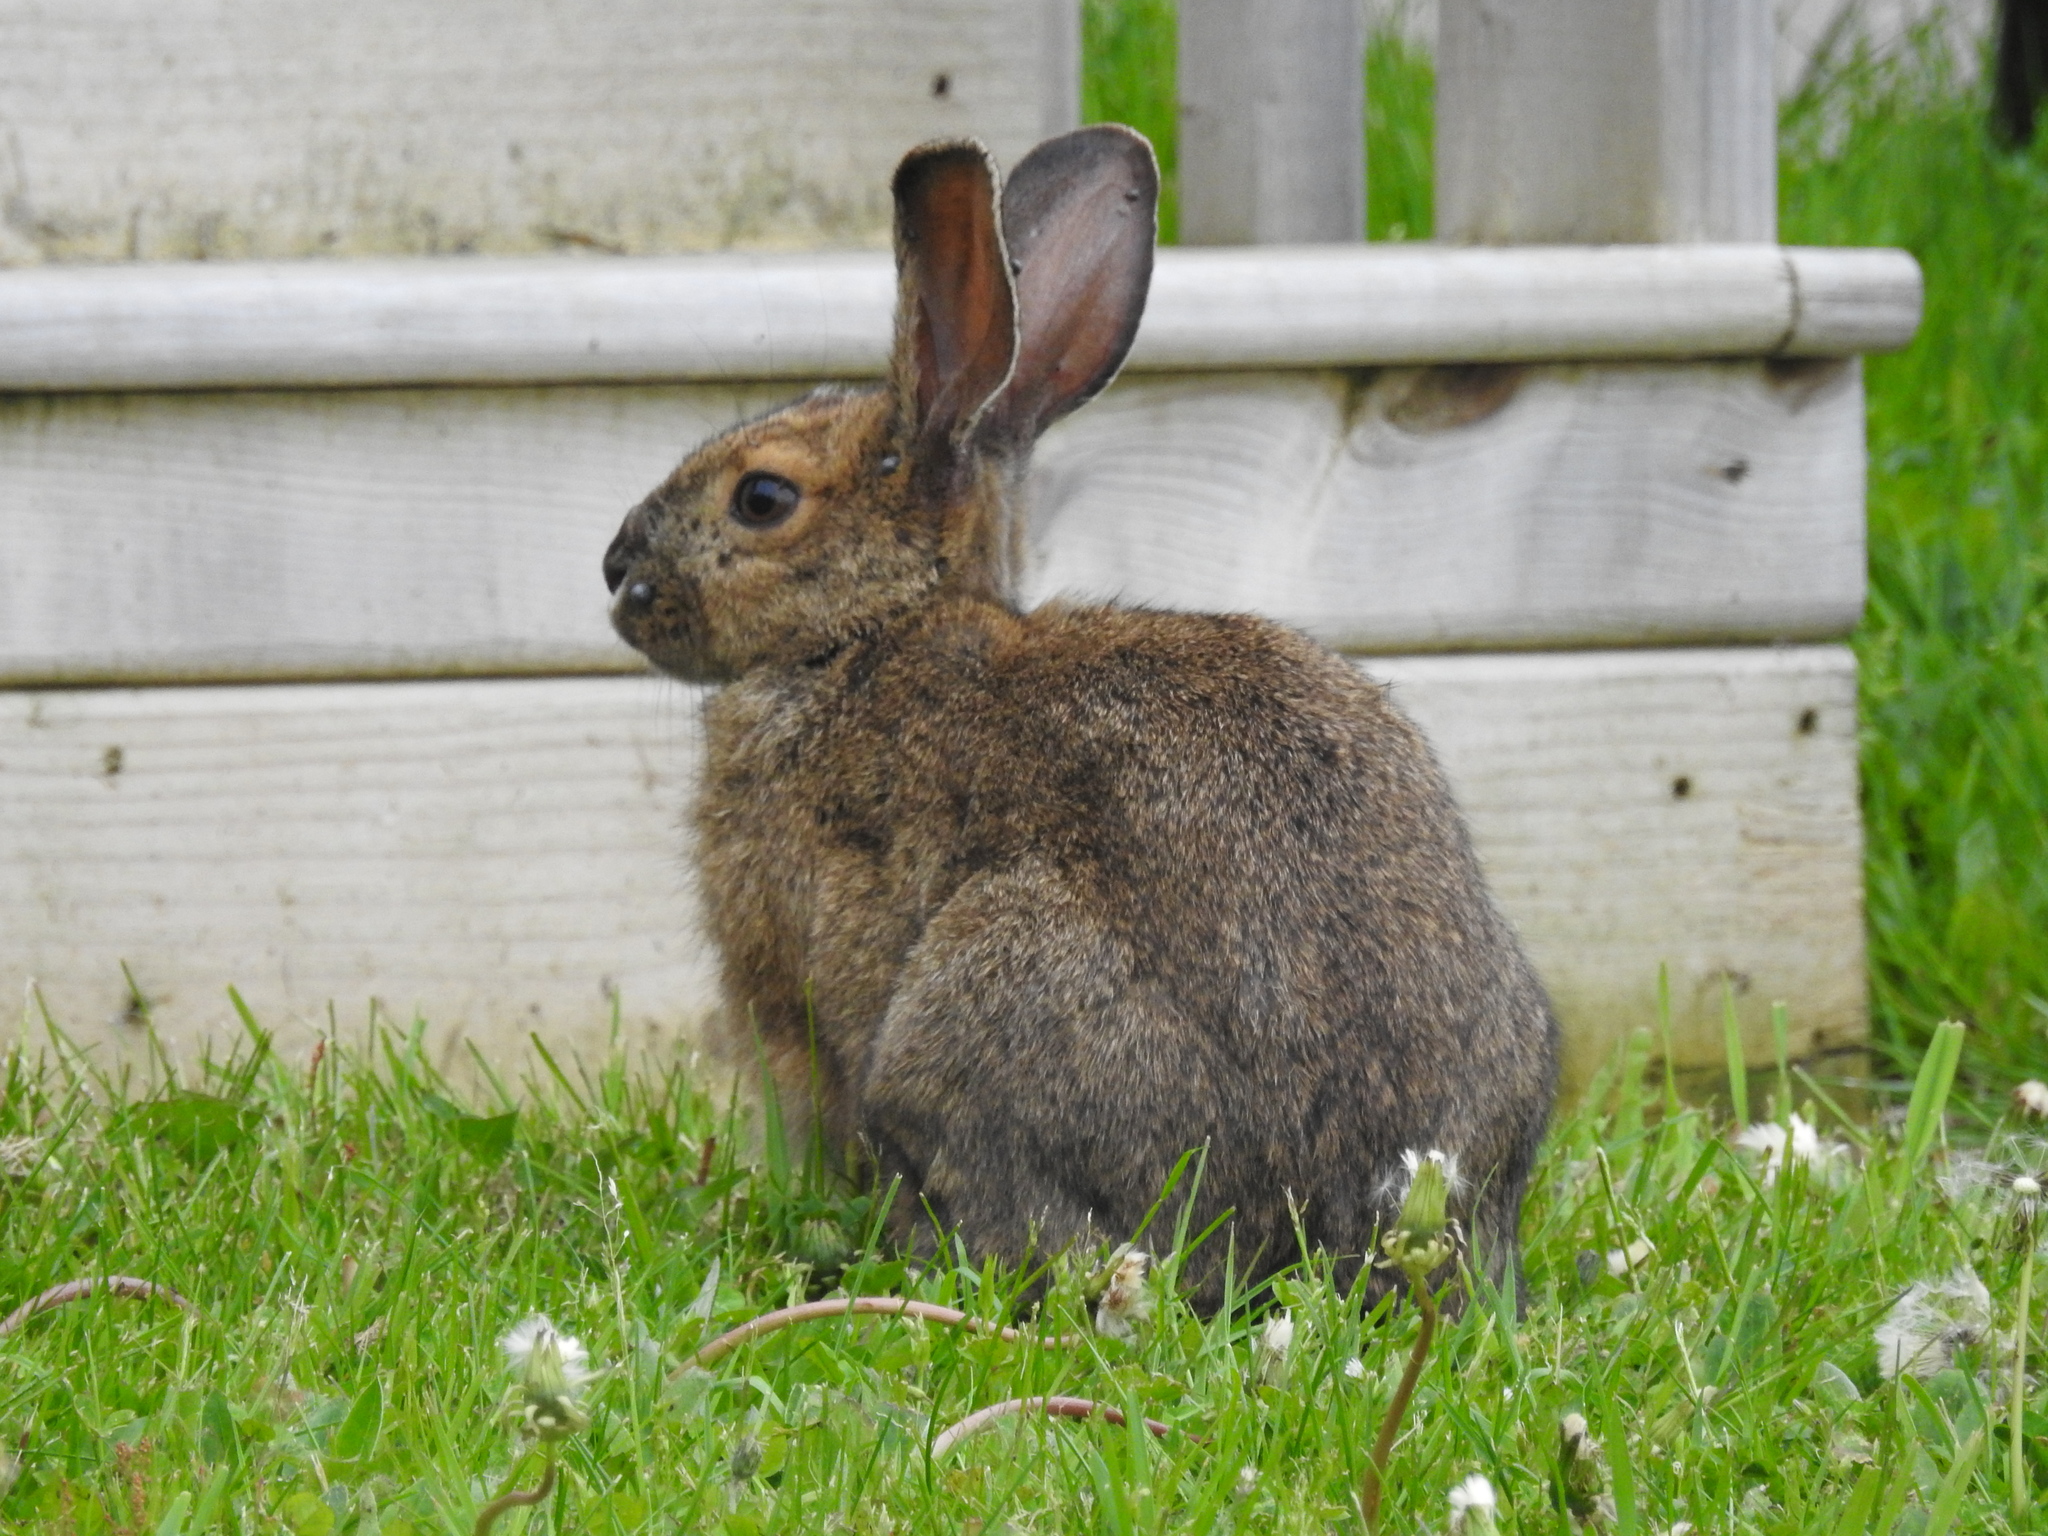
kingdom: Animalia
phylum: Chordata
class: Mammalia
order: Lagomorpha
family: Leporidae
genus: Lepus
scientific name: Lepus americanus
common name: Snowshoe hare
